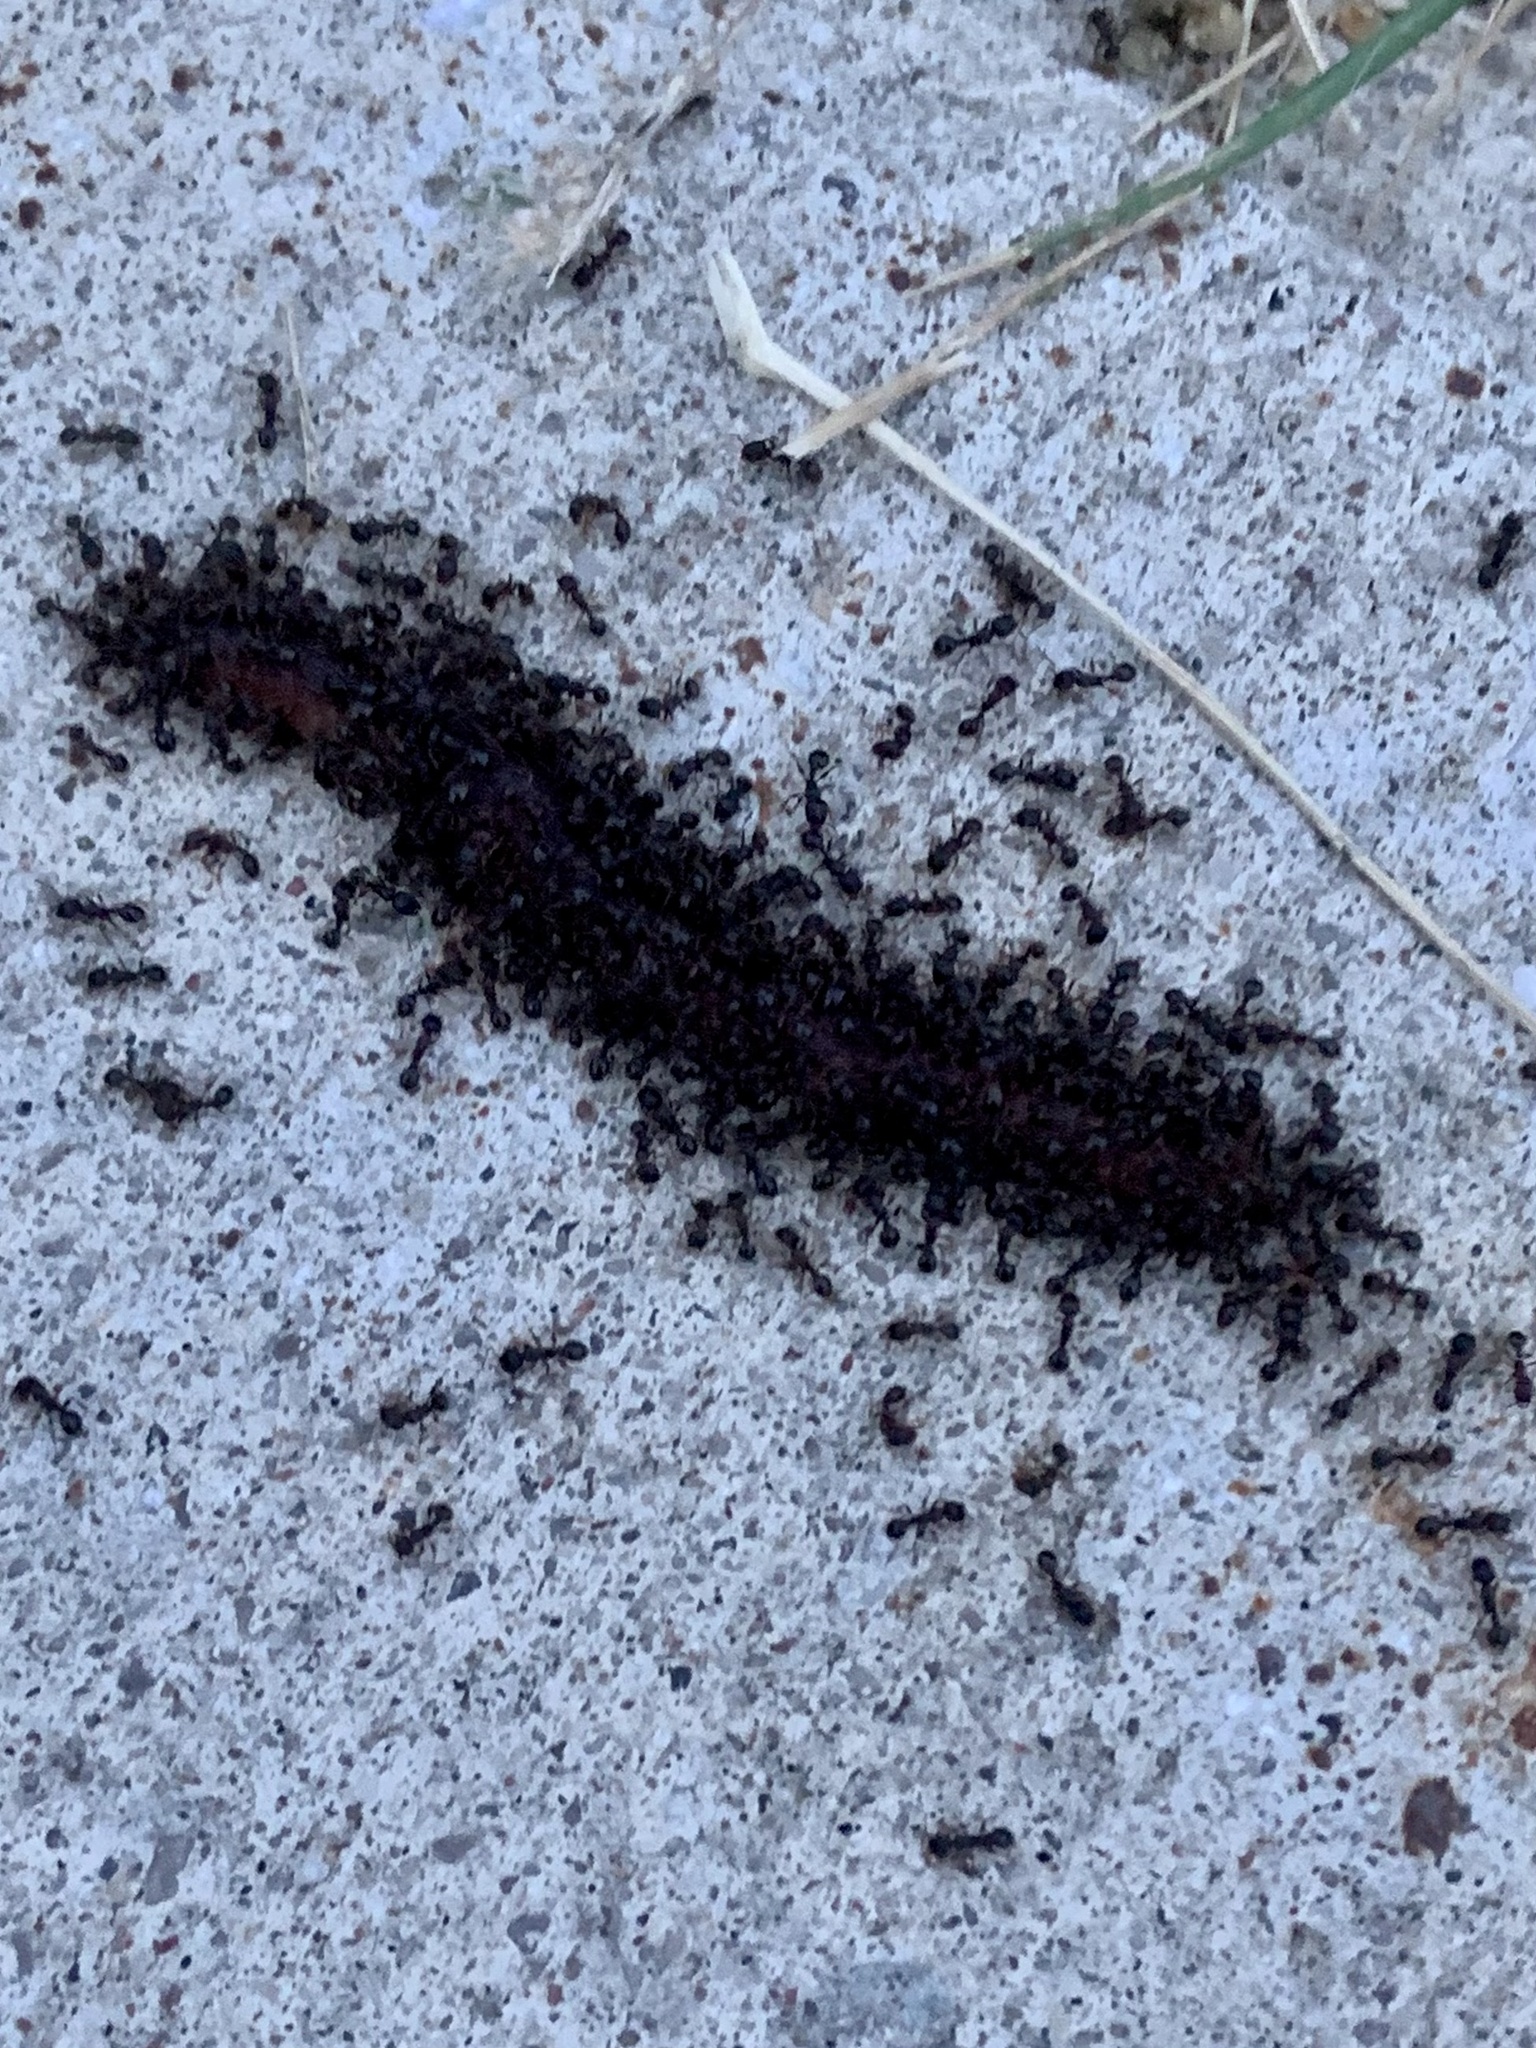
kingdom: Animalia
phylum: Arthropoda
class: Insecta
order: Hymenoptera
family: Formicidae
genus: Tetramorium
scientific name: Tetramorium immigrans
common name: Pavement ant
